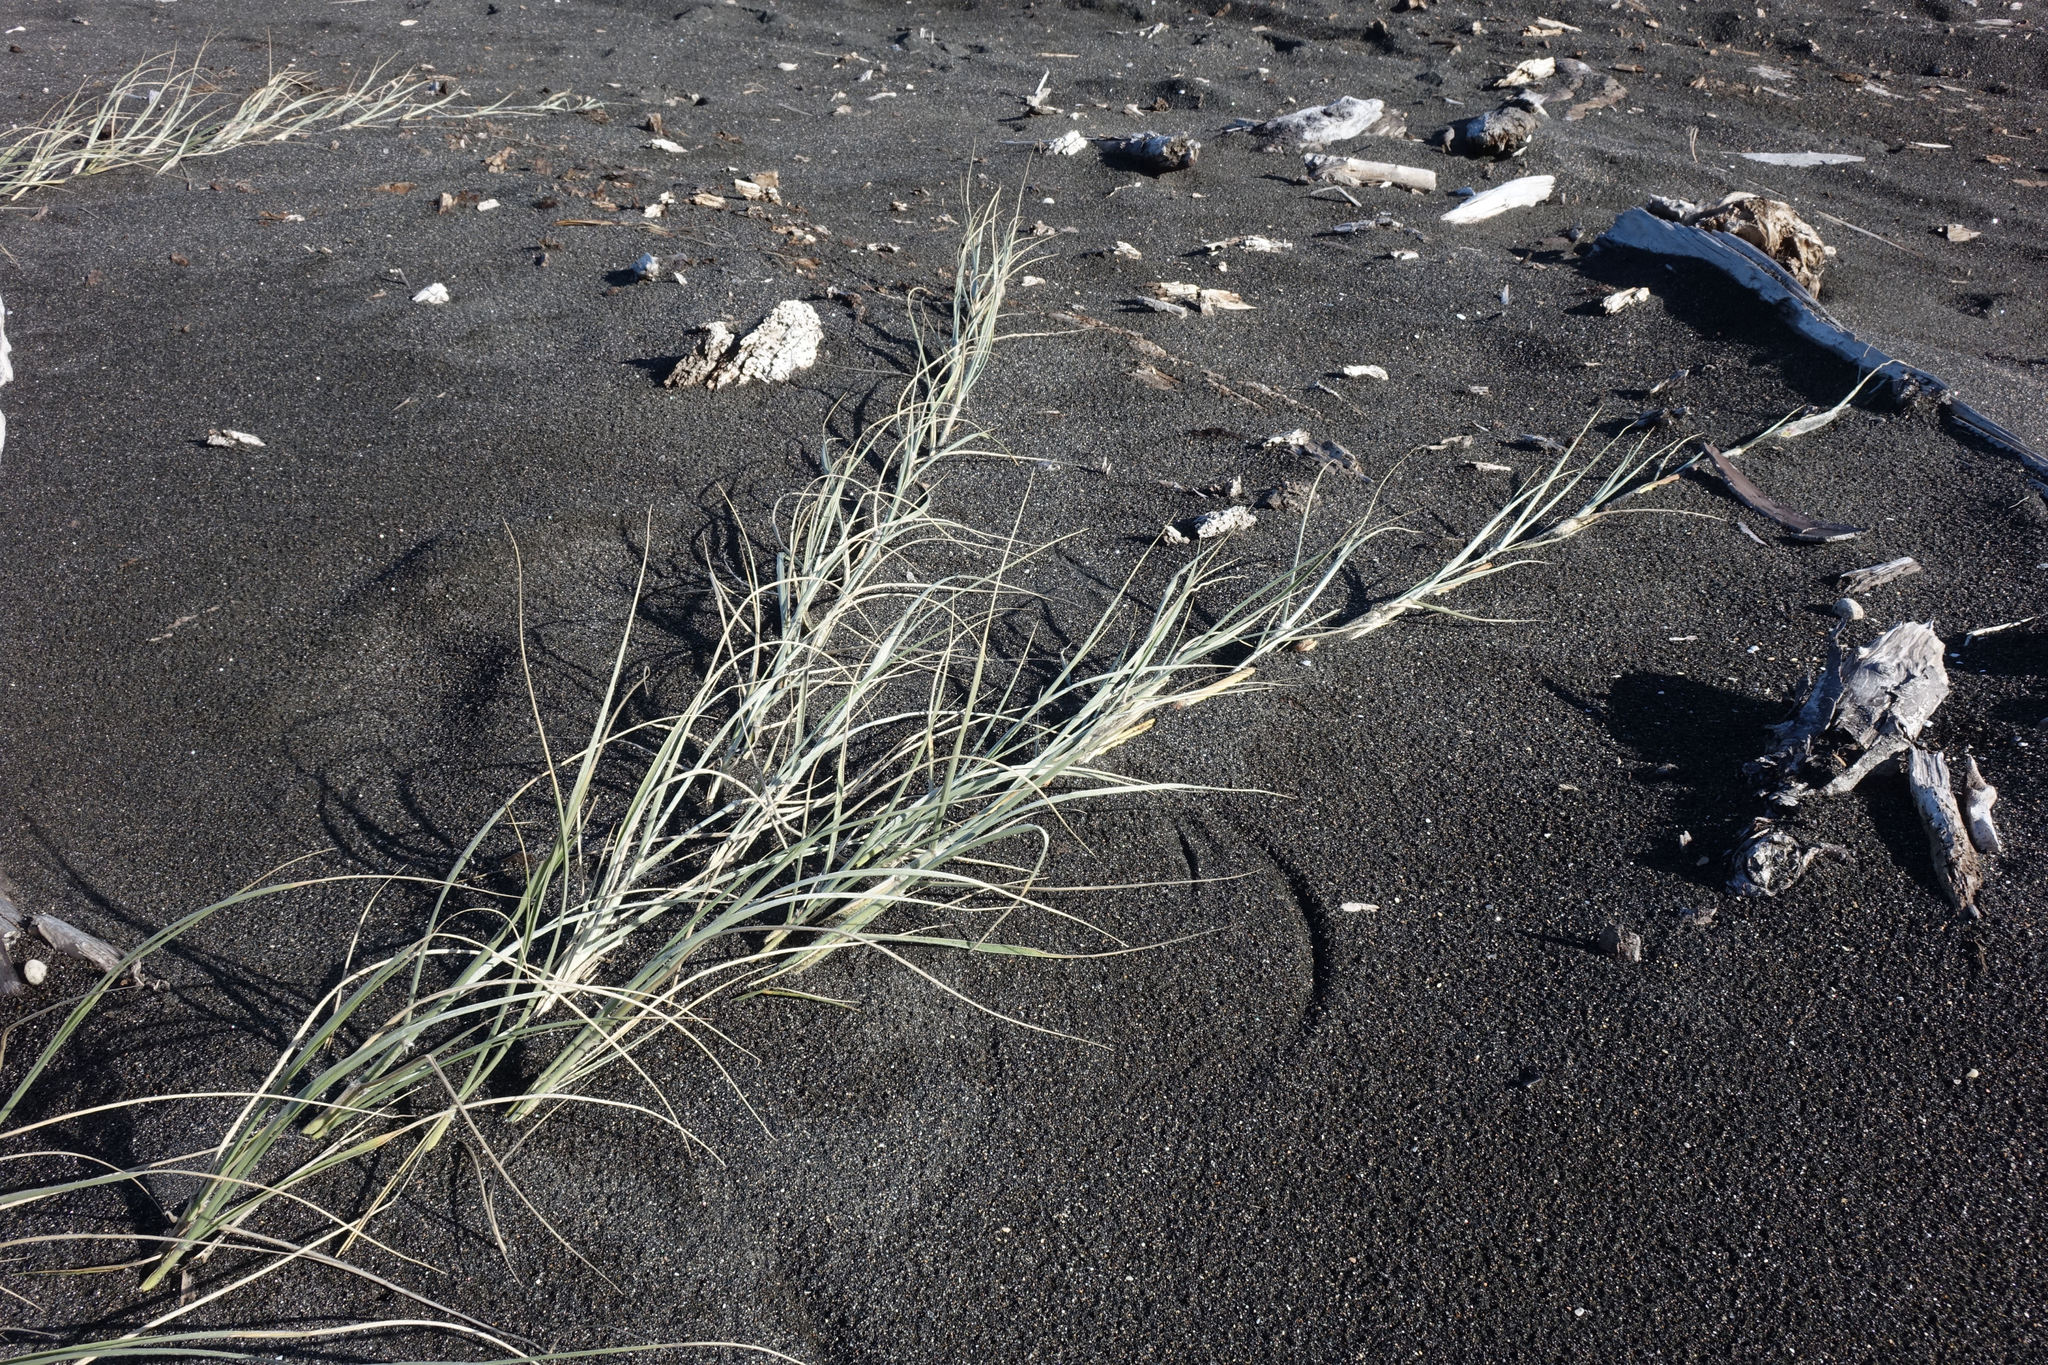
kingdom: Plantae
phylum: Tracheophyta
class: Liliopsida
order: Poales
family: Poaceae
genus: Spinifex
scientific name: Spinifex sericeus
